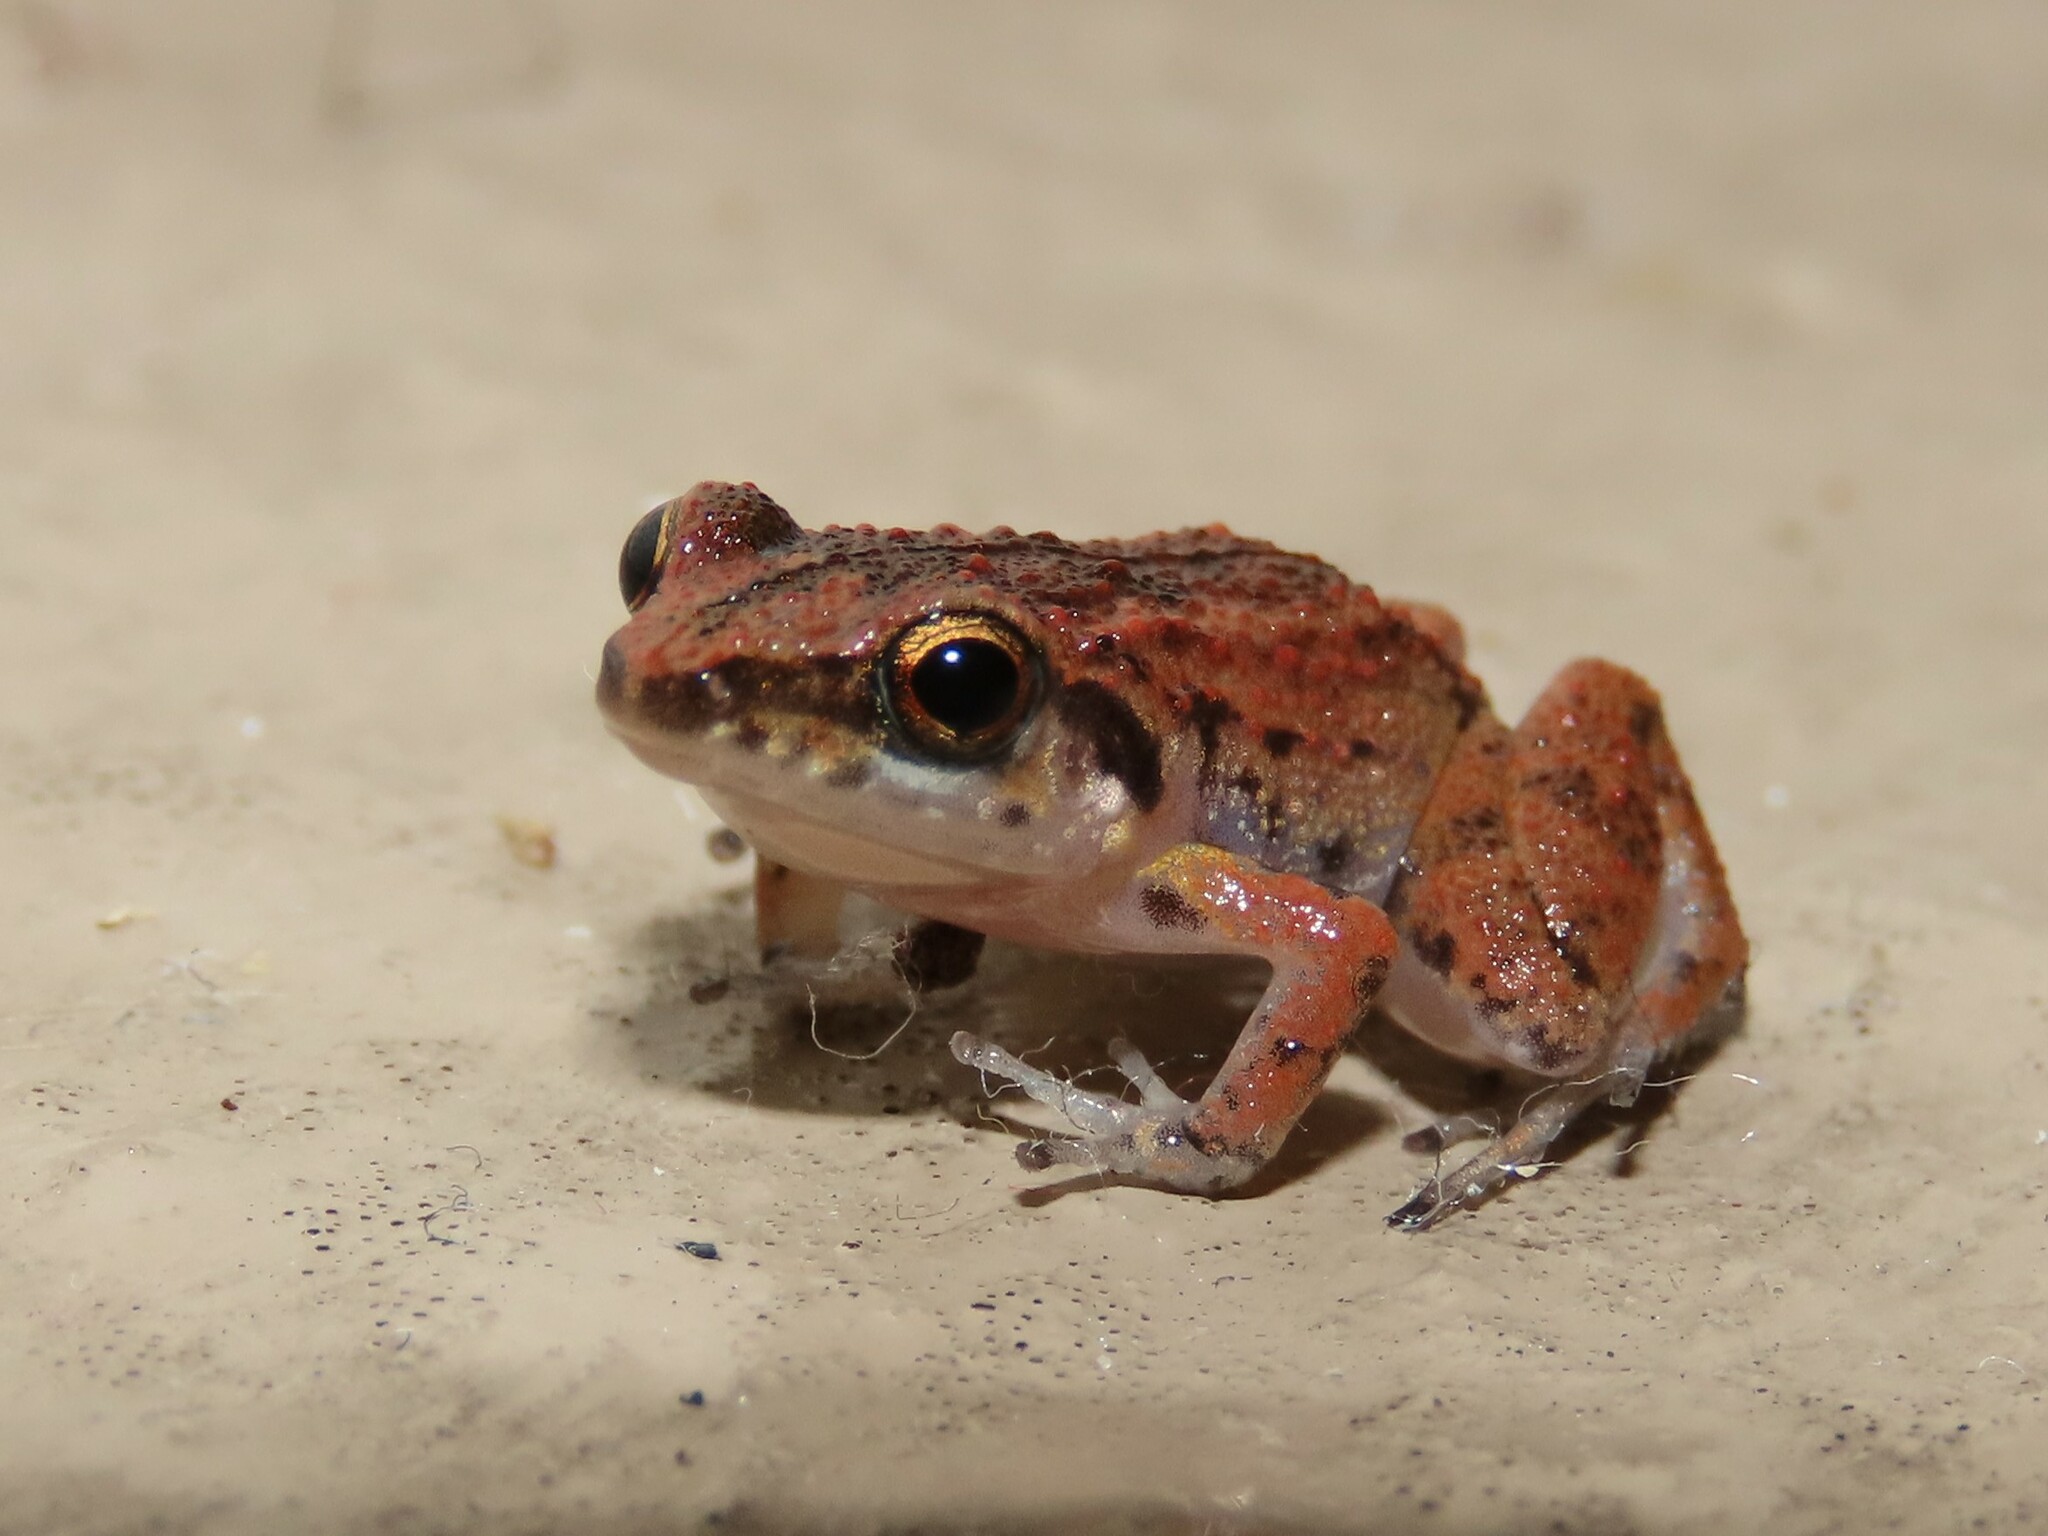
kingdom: Animalia
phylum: Chordata
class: Amphibia
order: Anura
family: Eleutherodactylidae
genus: Eleutherodactylus
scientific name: Eleutherodactylus planirostris
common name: Greenhouse frog
